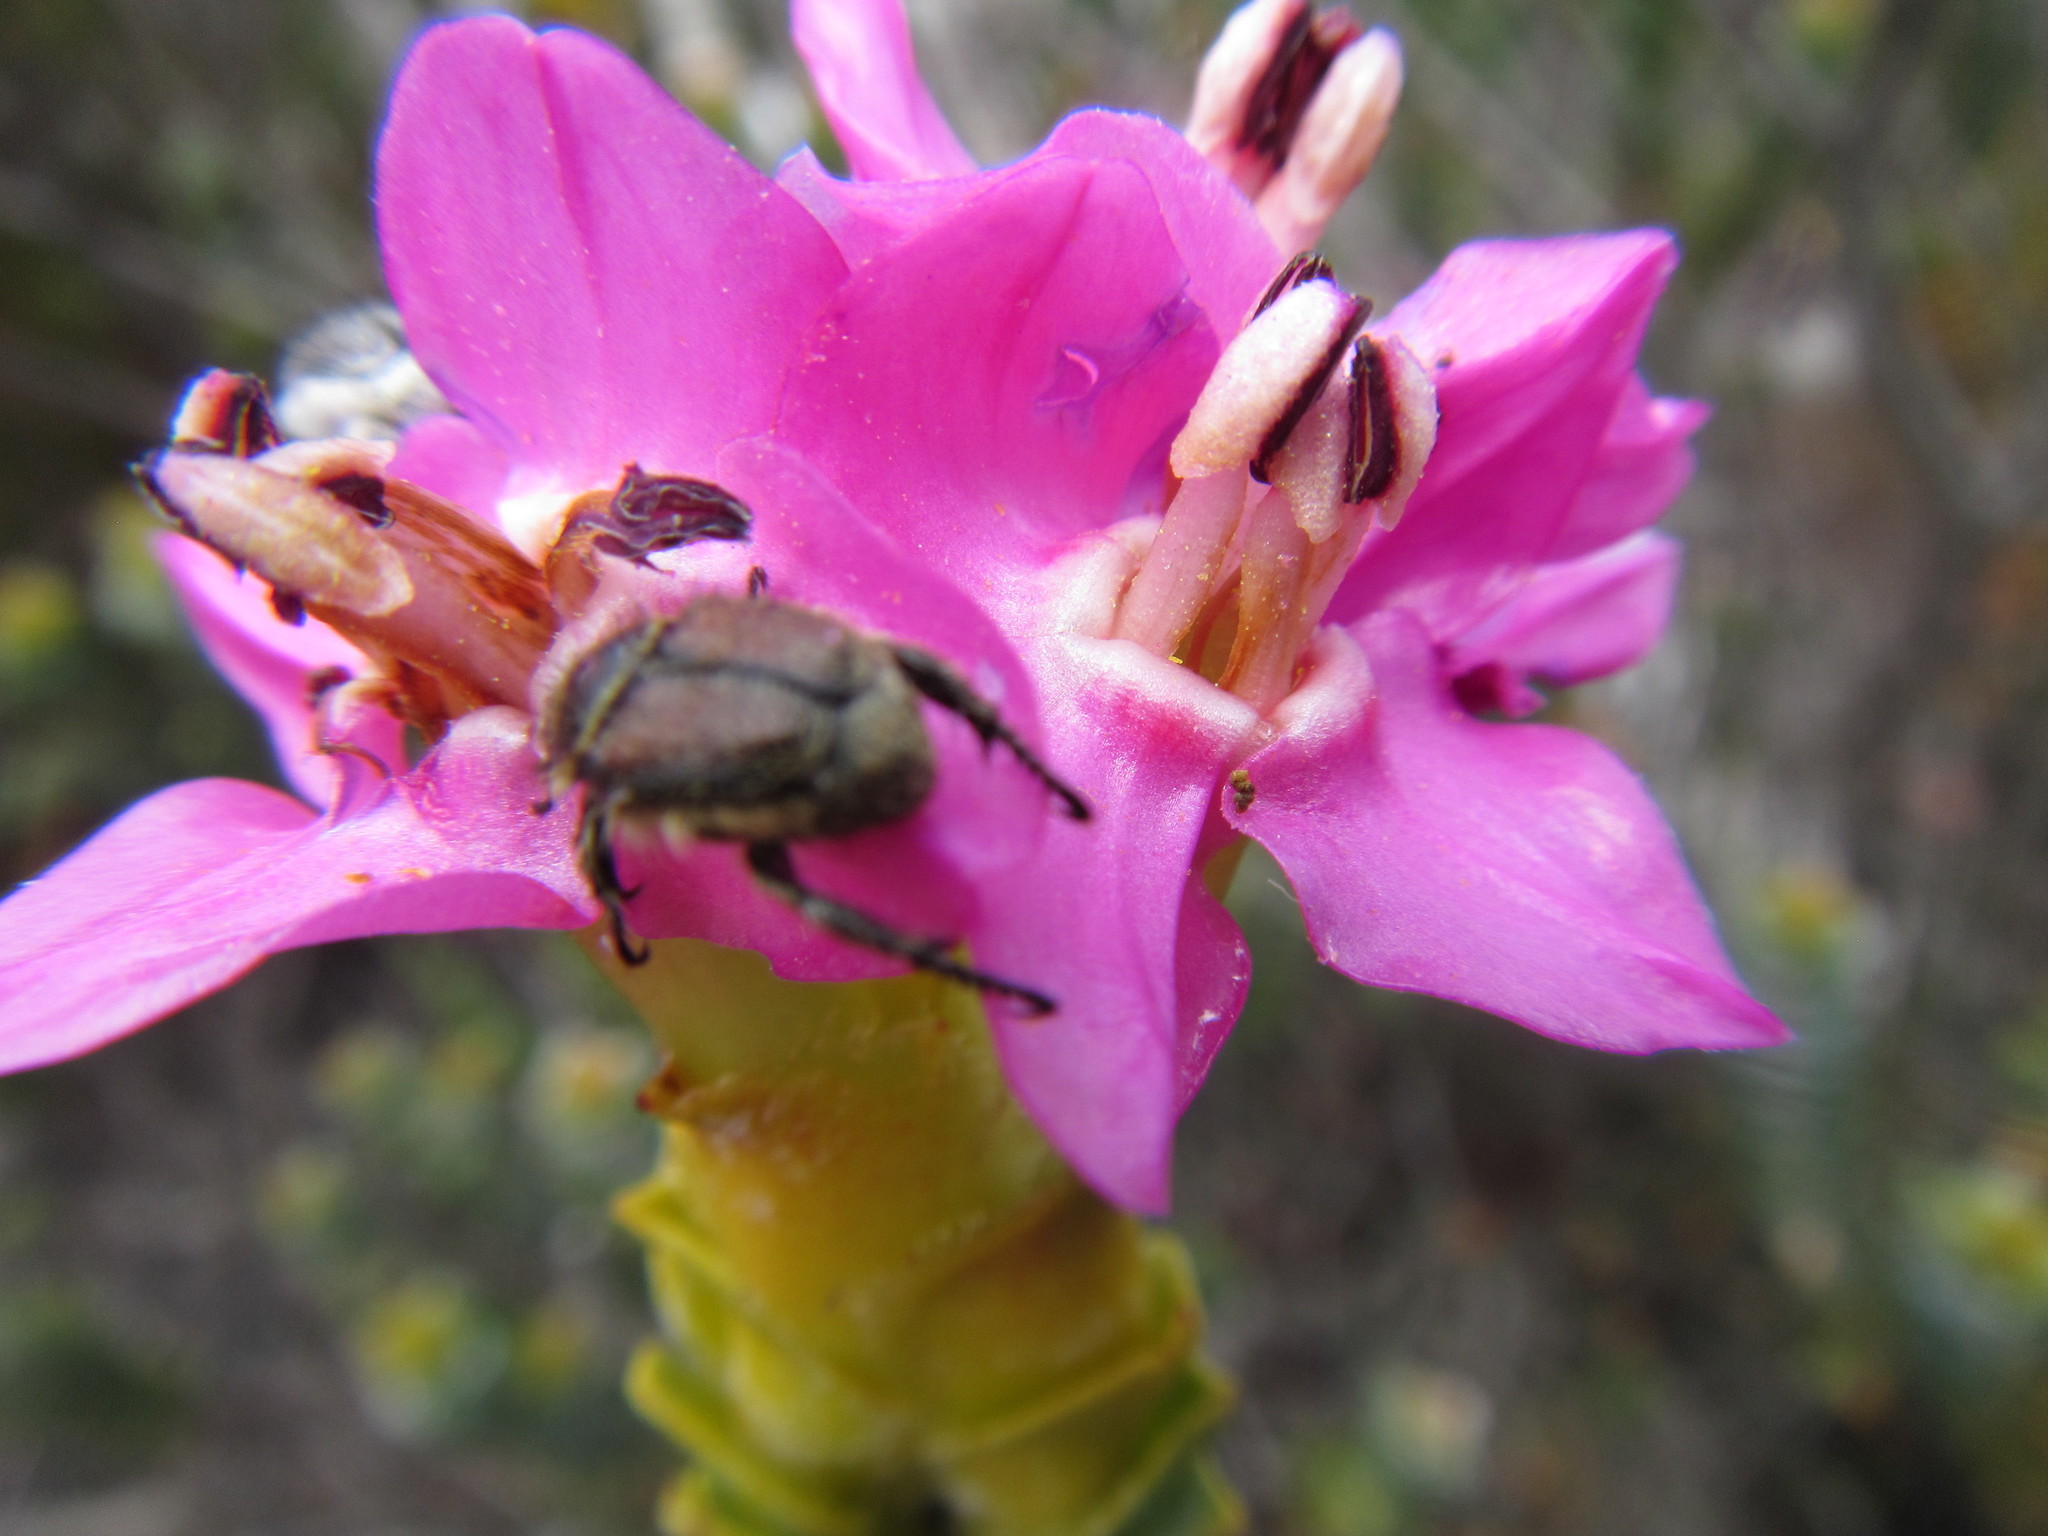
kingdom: Plantae
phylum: Tracheophyta
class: Magnoliopsida
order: Myrtales
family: Penaeaceae
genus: Saltera
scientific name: Saltera sarcocolla
